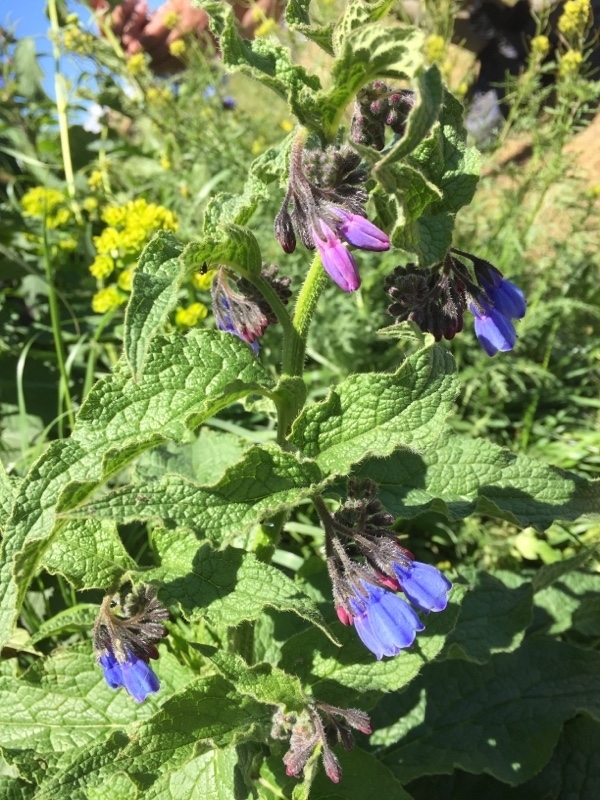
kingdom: Plantae
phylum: Tracheophyta
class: Magnoliopsida
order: Boraginales
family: Boraginaceae
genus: Symphytum
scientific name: Symphytum asperum
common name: Prickly comfrey
